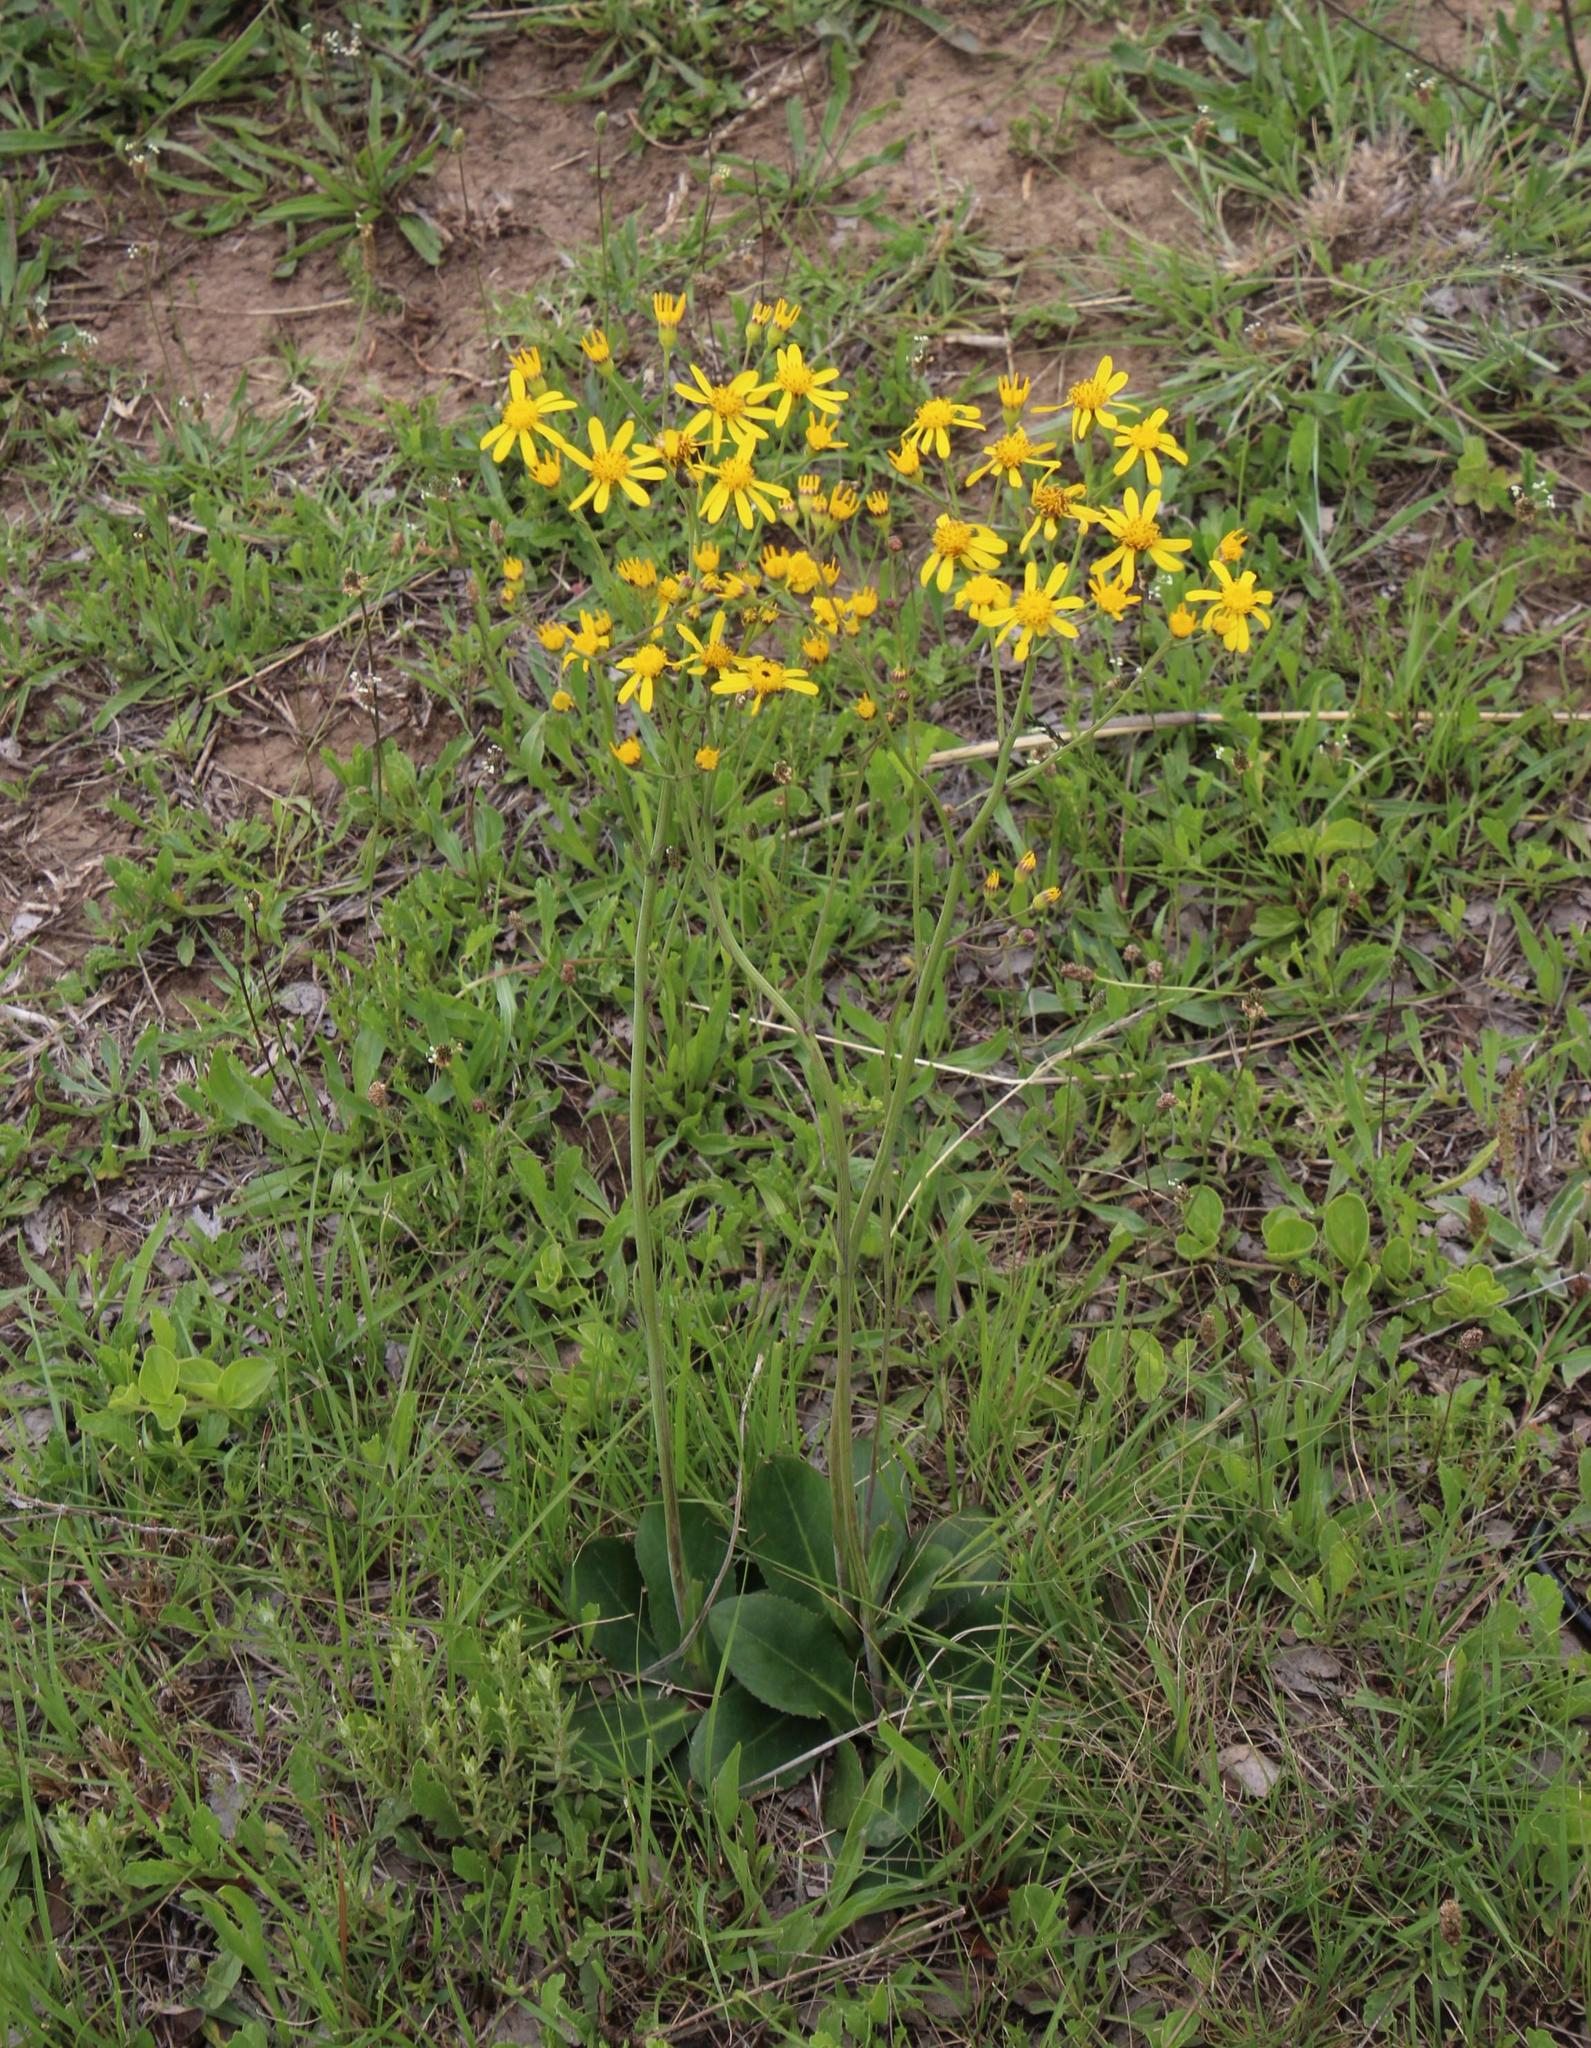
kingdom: Plantae
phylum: Tracheophyta
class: Magnoliopsida
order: Asterales
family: Asteraceae
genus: Senecio
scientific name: Senecio paucicalyculatus
